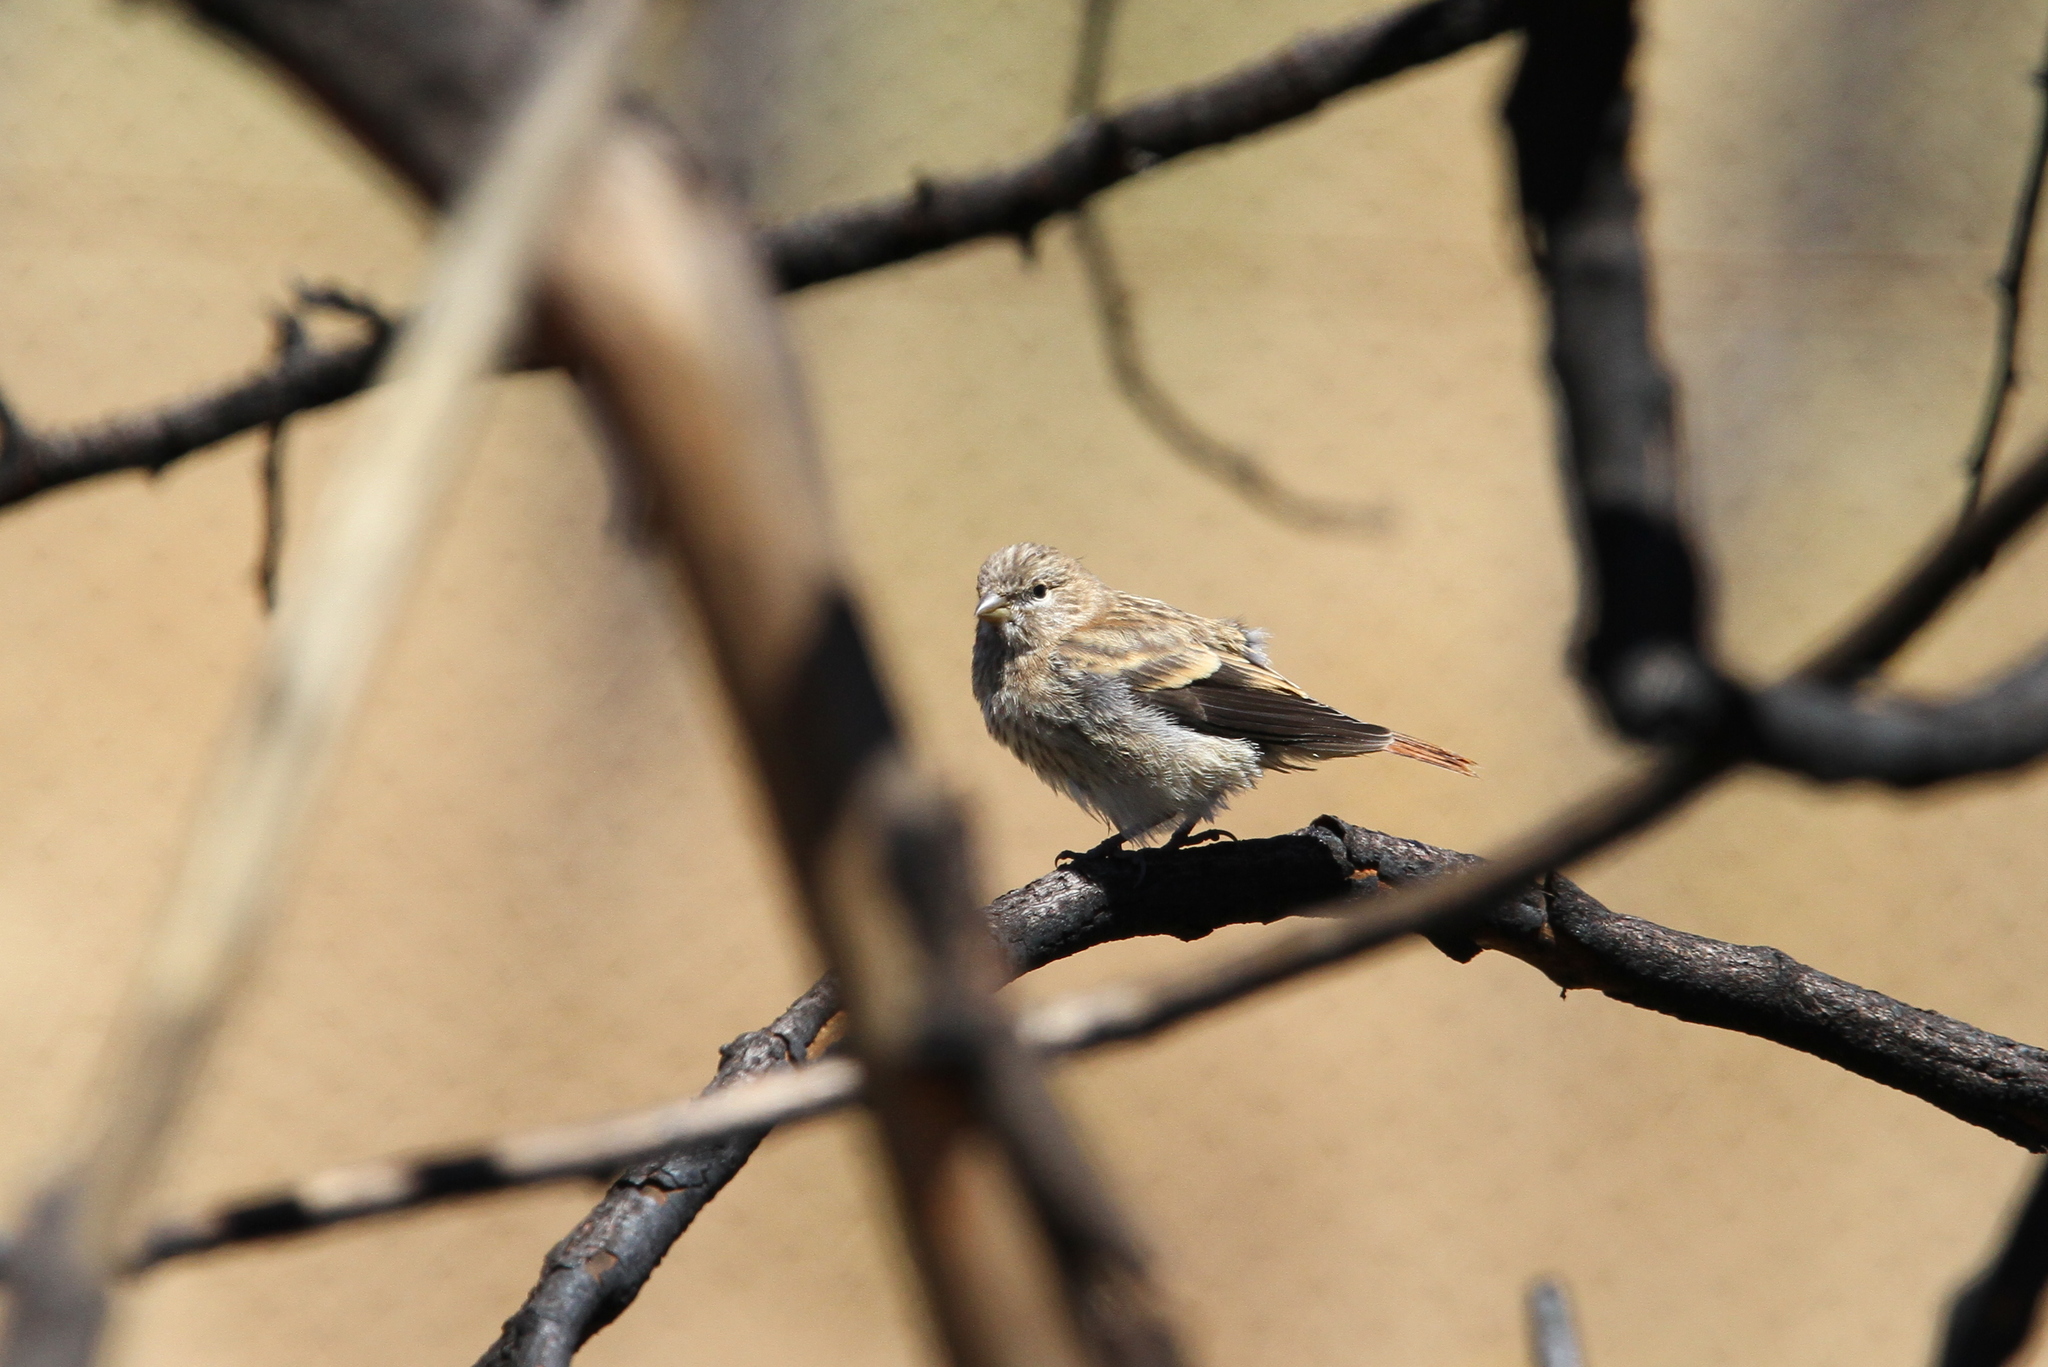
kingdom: Animalia
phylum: Chordata
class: Aves
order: Passeriformes
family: Fringillidae
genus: Serinus
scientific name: Serinus alario
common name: Black-headed canary
